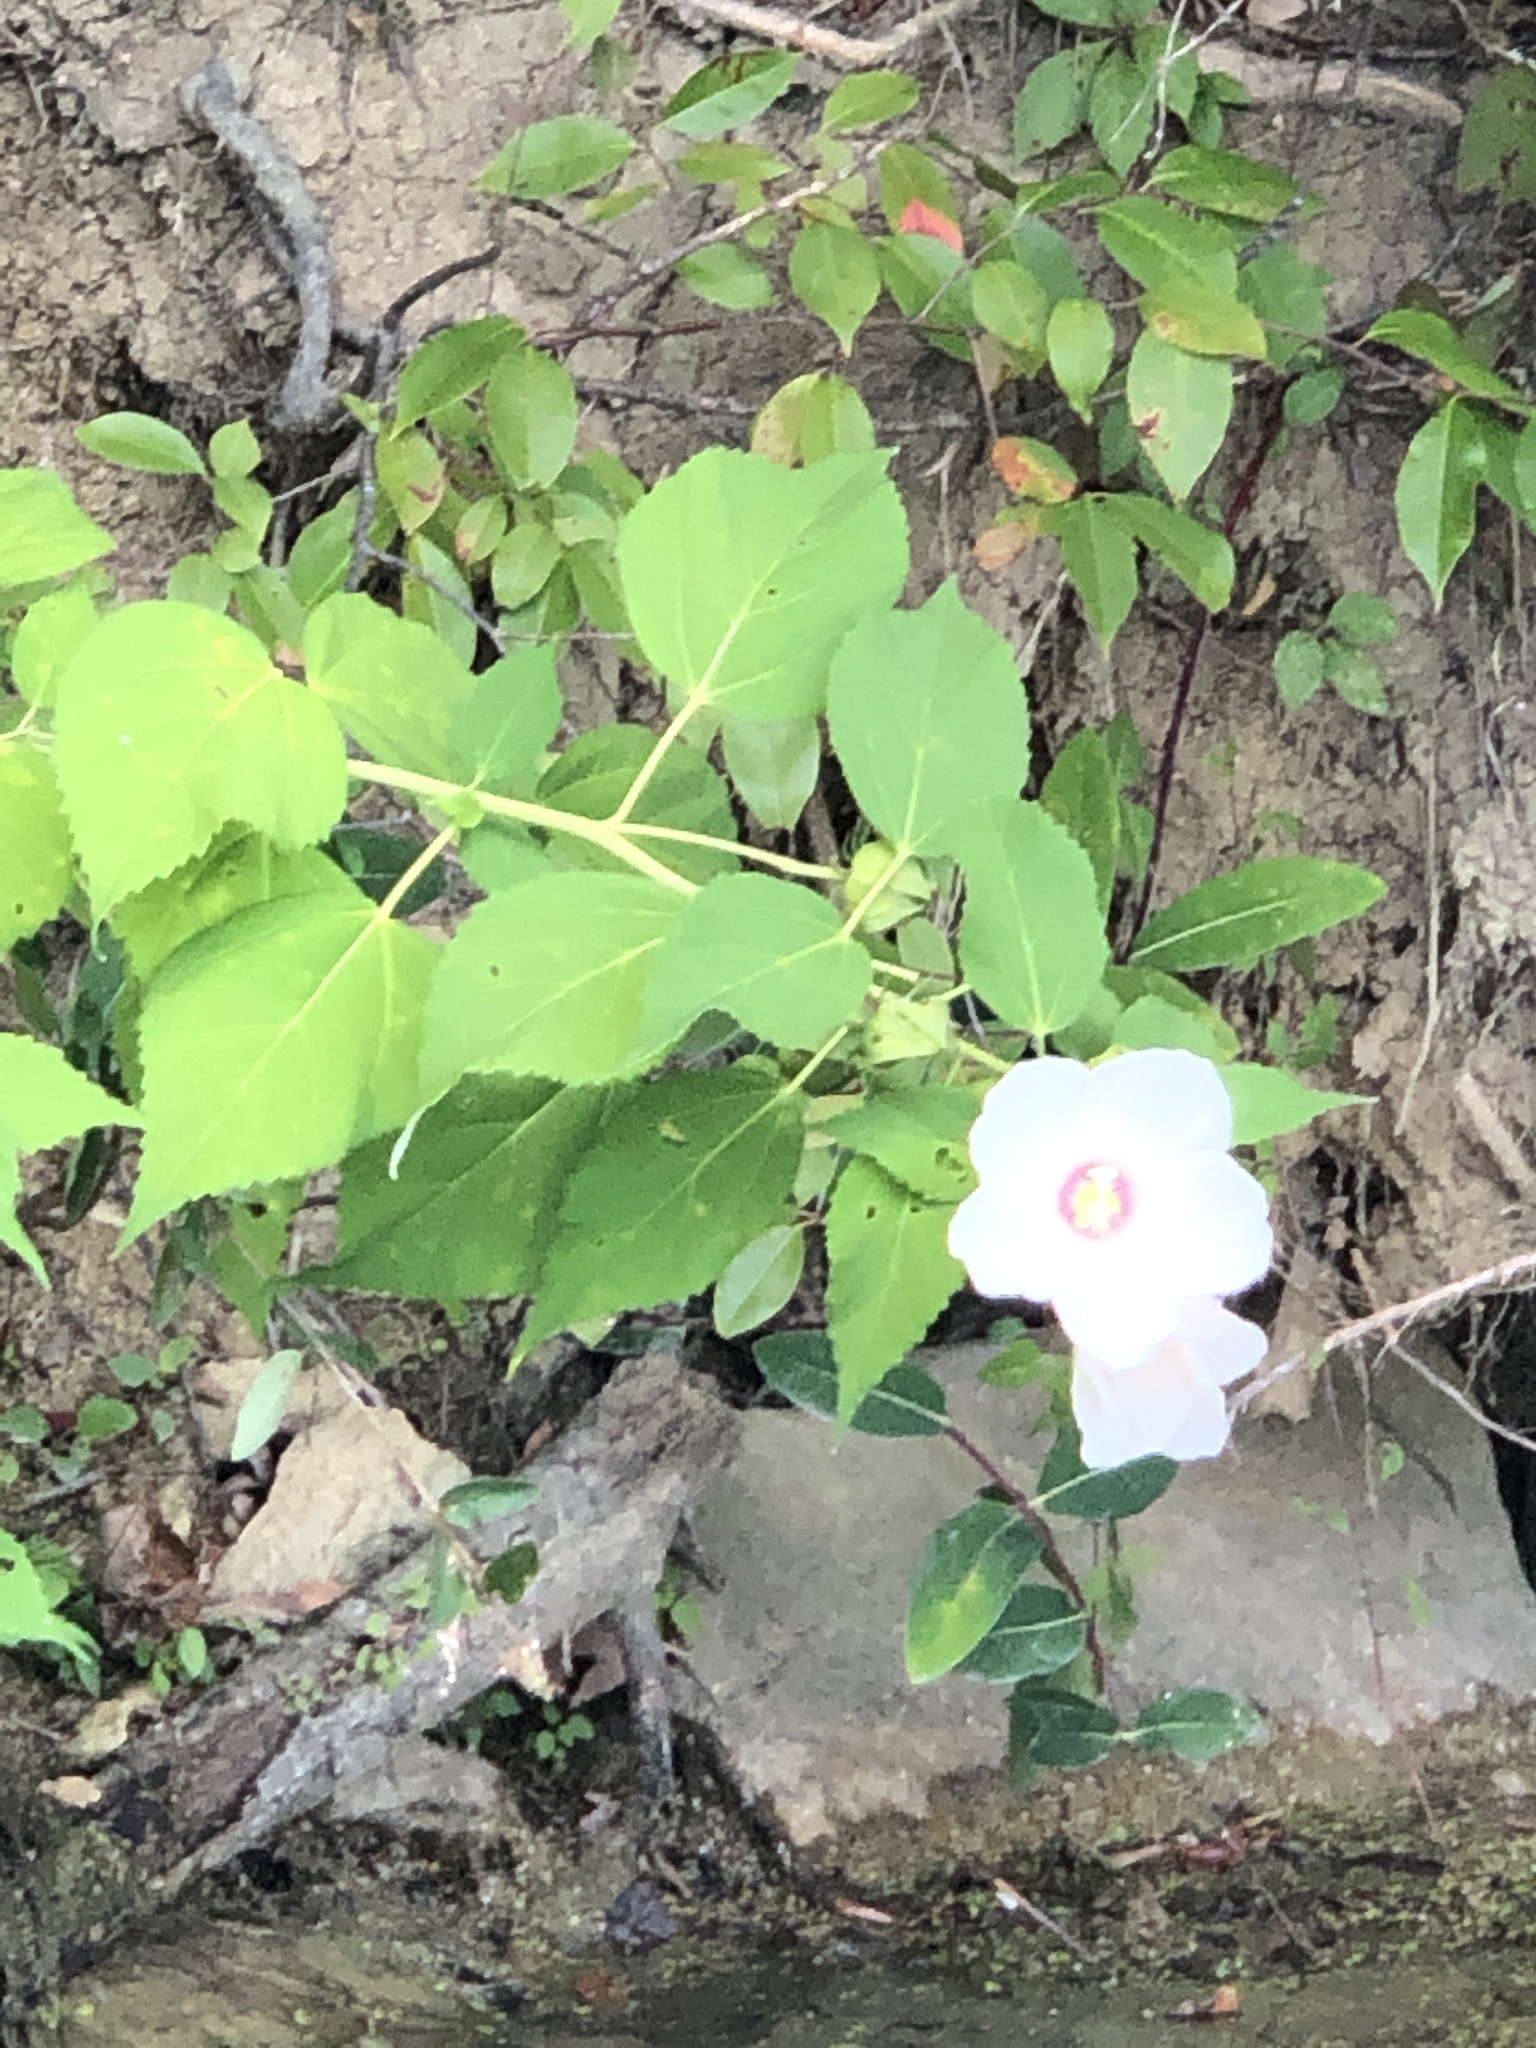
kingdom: Plantae
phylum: Tracheophyta
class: Magnoliopsida
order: Malvales
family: Malvaceae
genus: Hibiscus
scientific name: Hibiscus moscheutos
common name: Common rose-mallow
